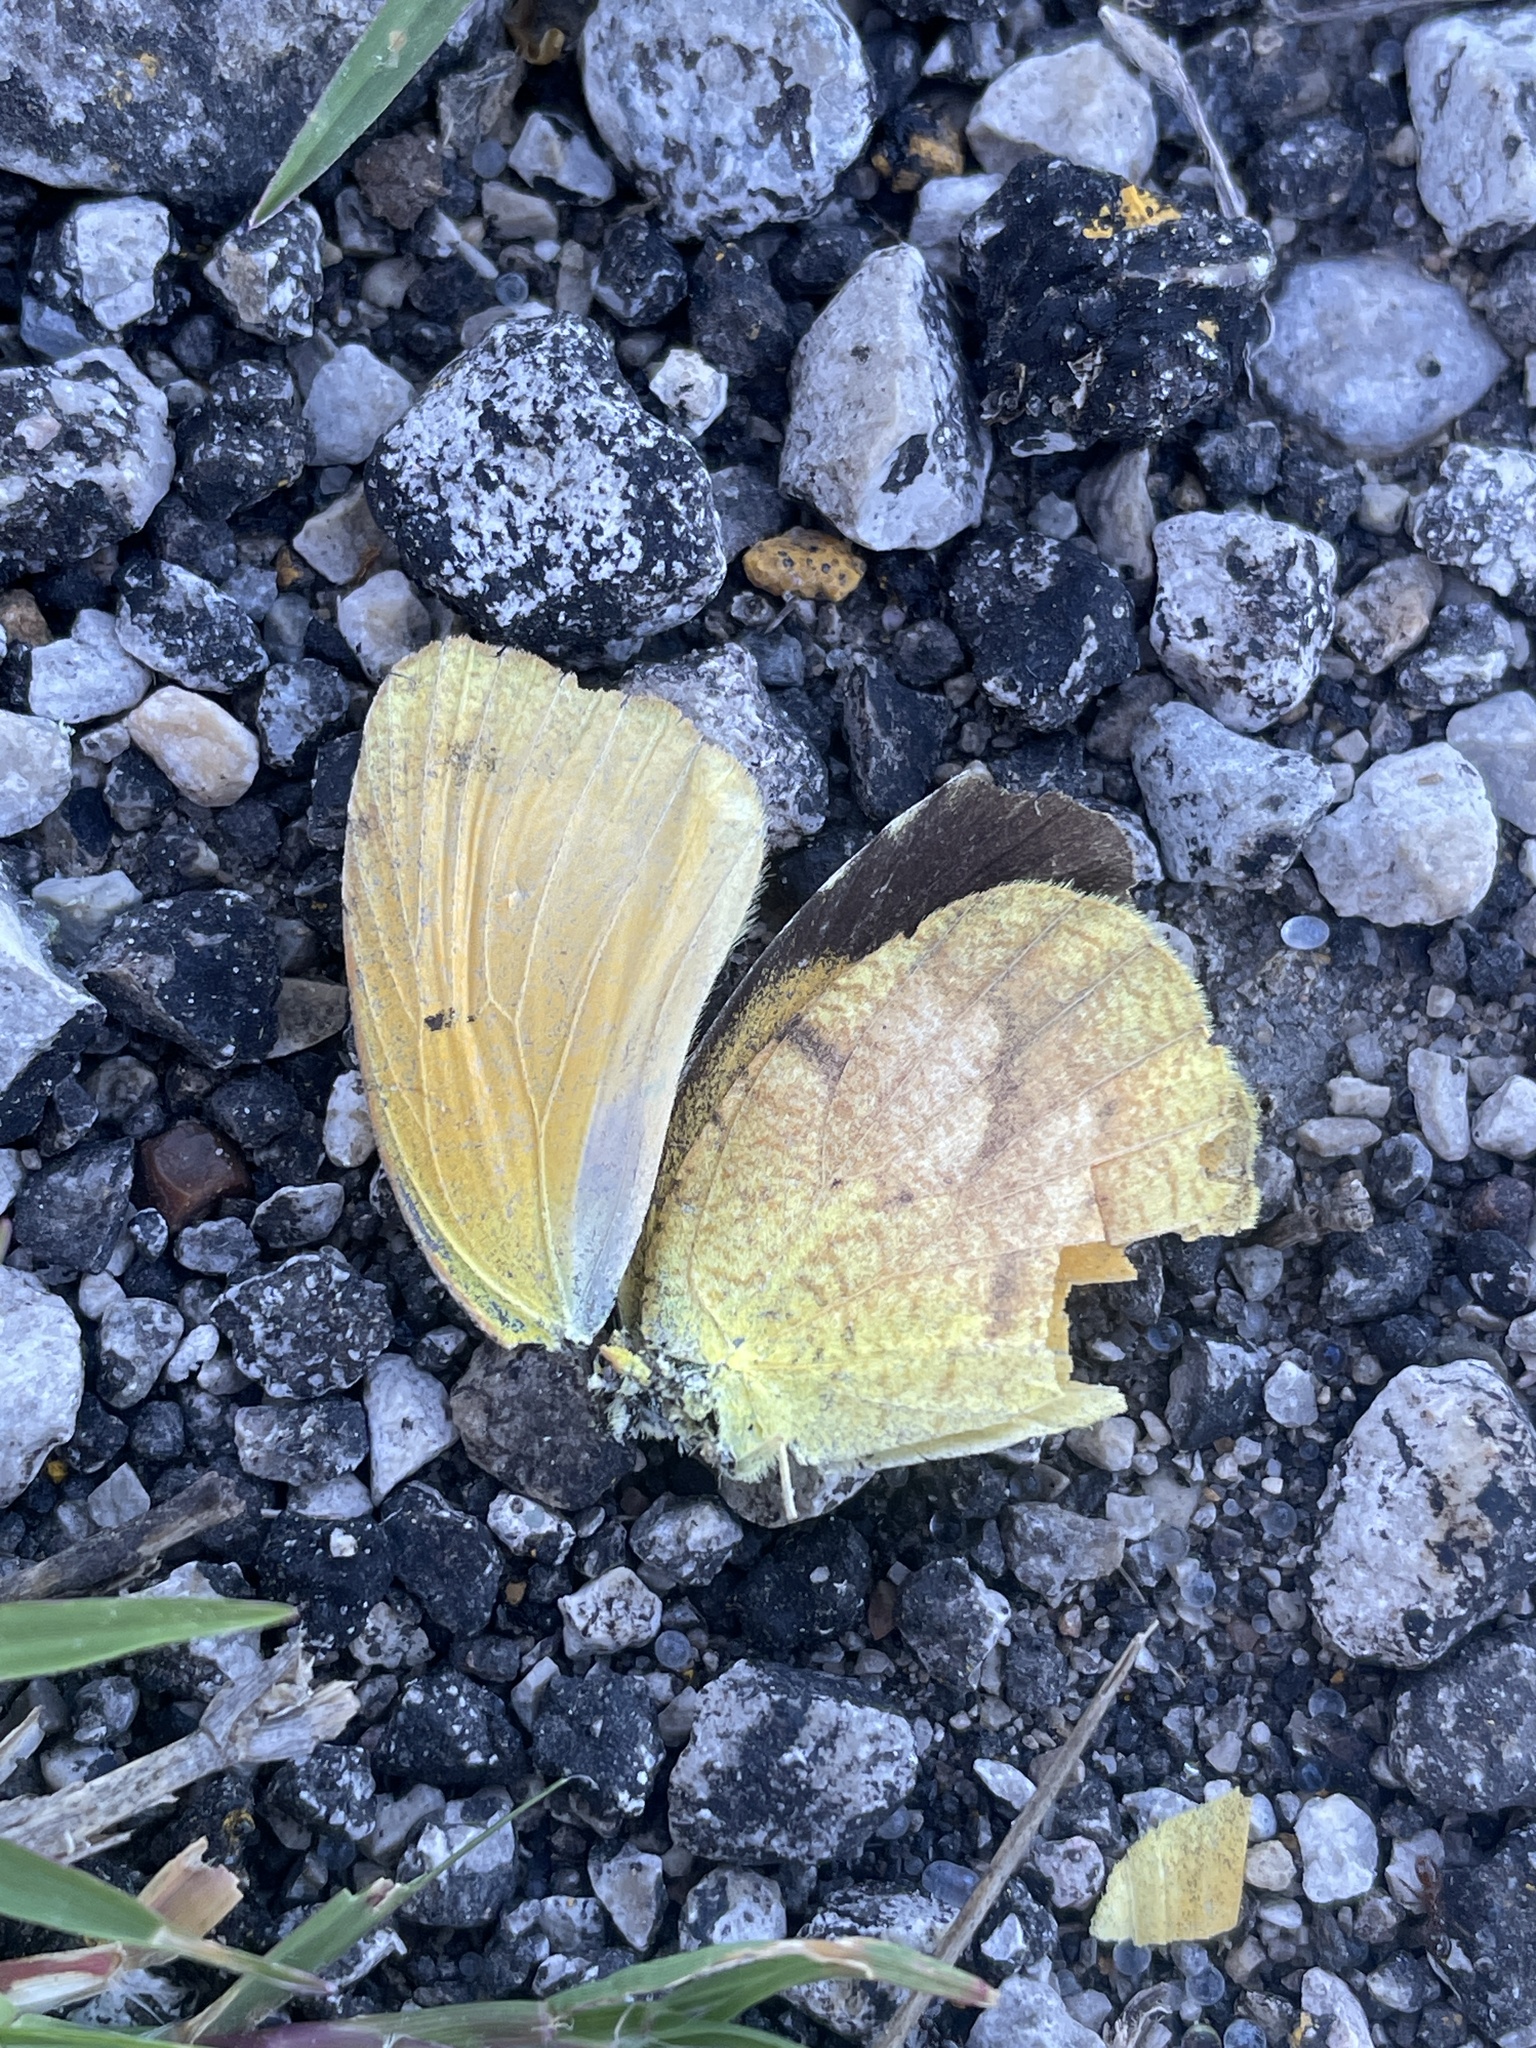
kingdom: Animalia
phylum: Arthropoda
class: Insecta
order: Lepidoptera
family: Pieridae
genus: Abaeis
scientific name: Abaeis nicippe
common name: Sleepy orange
